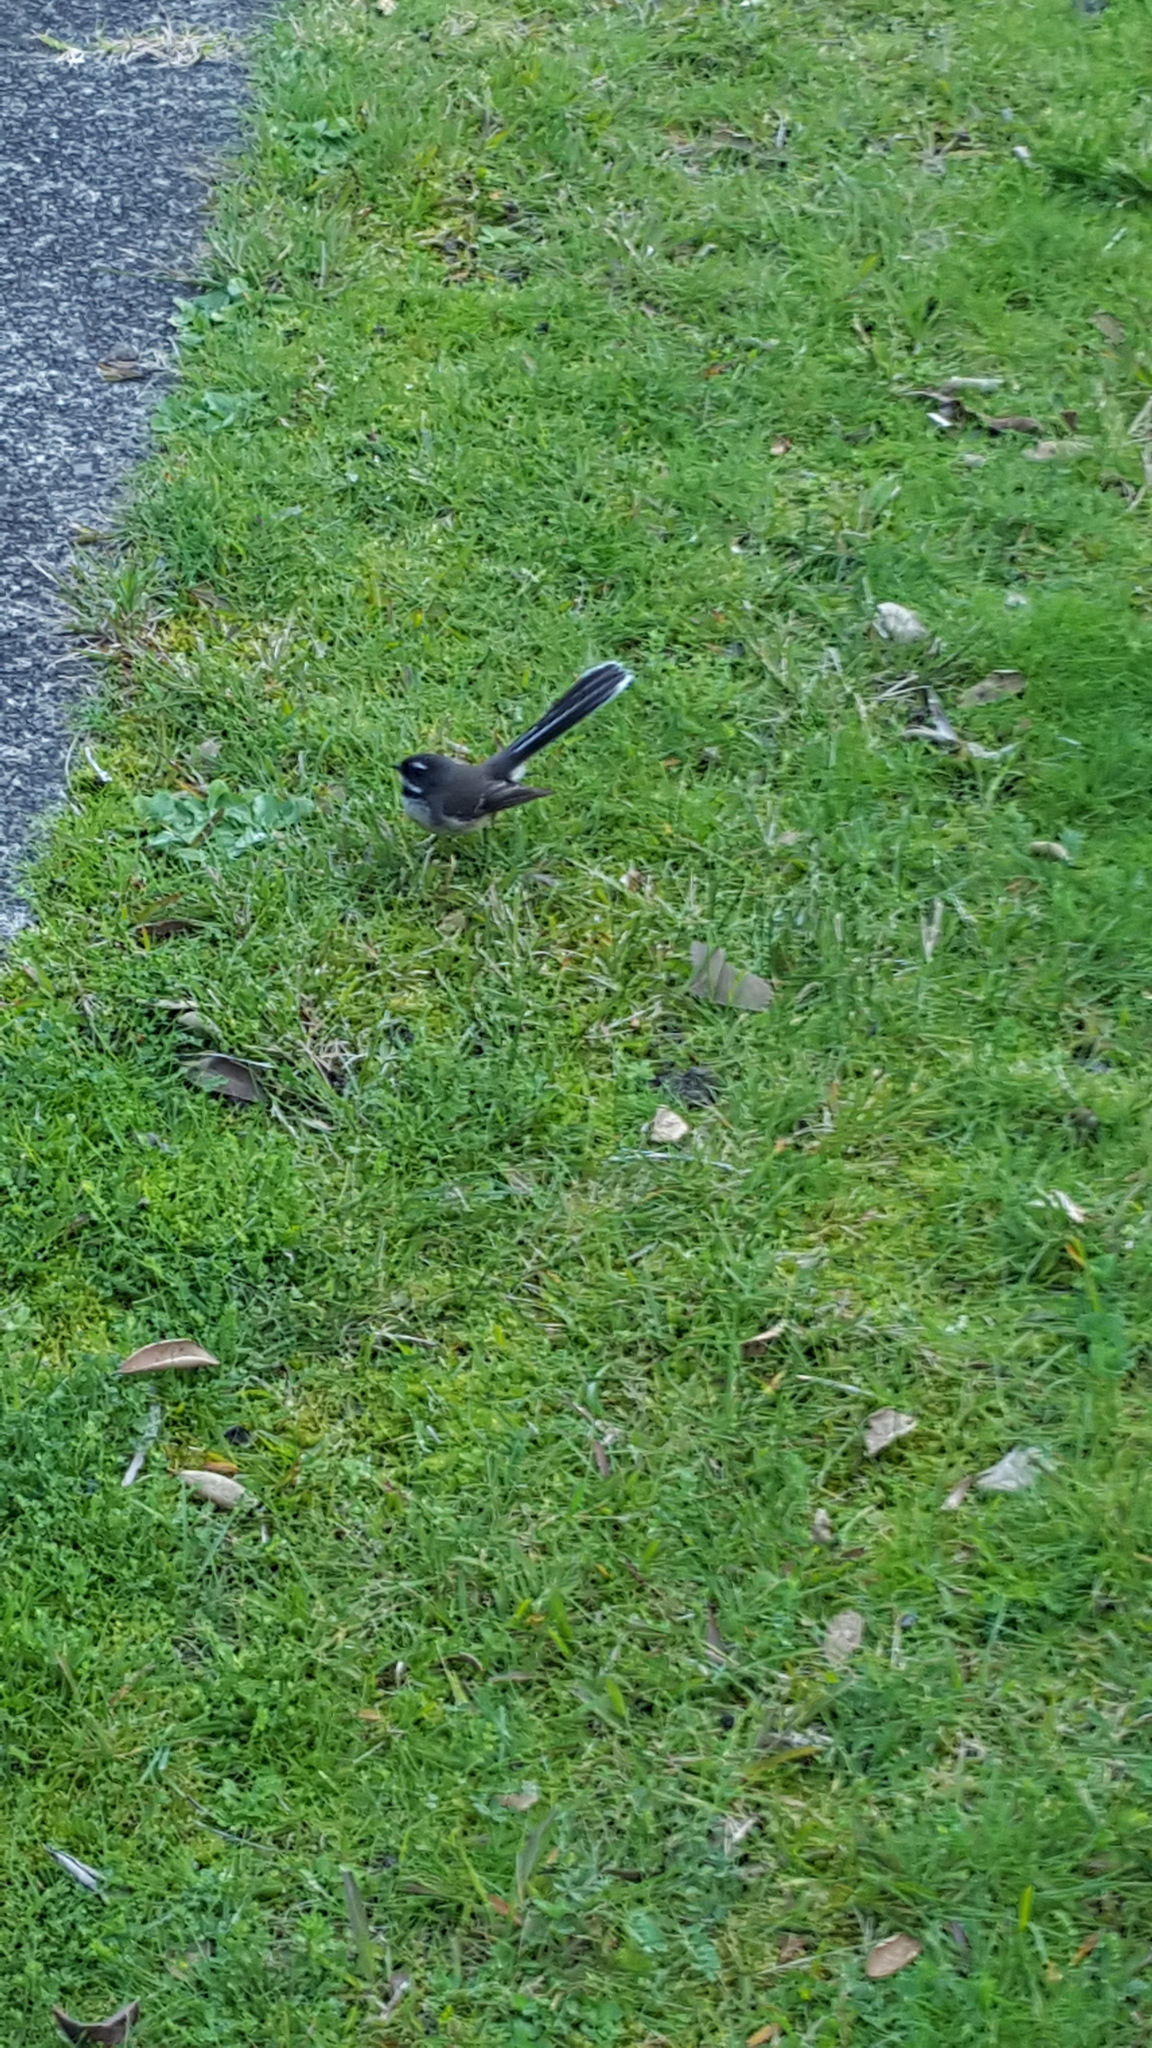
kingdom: Animalia
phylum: Chordata
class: Aves
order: Passeriformes
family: Rhipiduridae
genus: Rhipidura
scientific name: Rhipidura fuliginosa
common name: New zealand fantail
